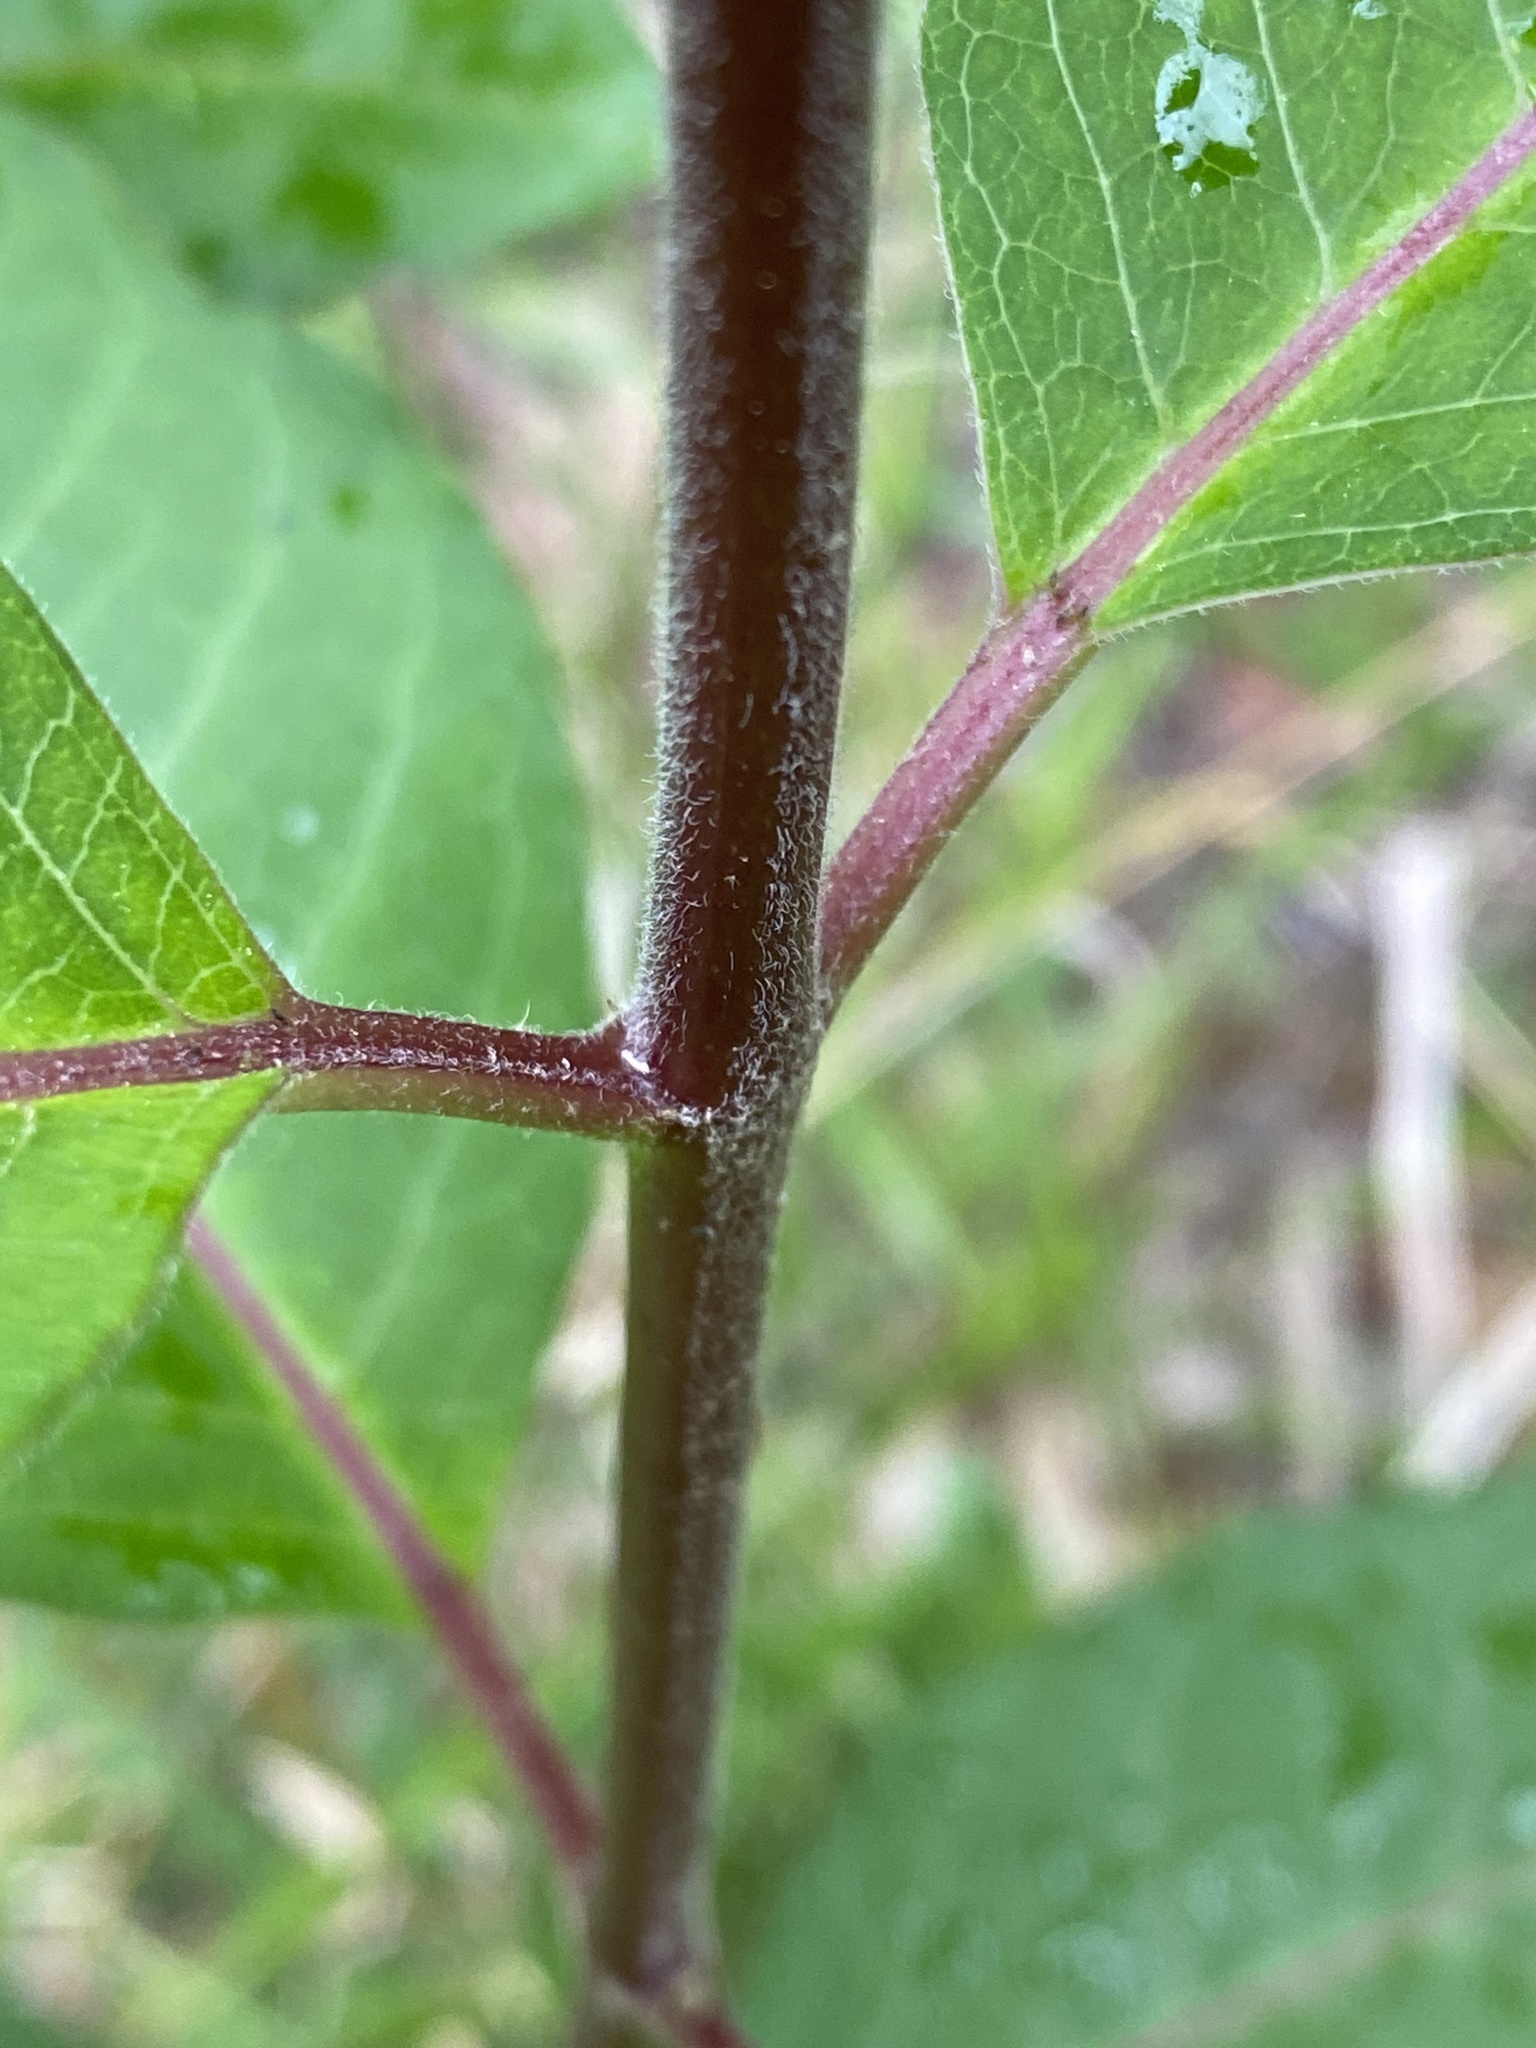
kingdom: Plantae
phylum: Tracheophyta
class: Magnoliopsida
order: Gentianales
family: Apocynaceae
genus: Asclepias
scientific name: Asclepias variegata
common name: Variegated milkweed
